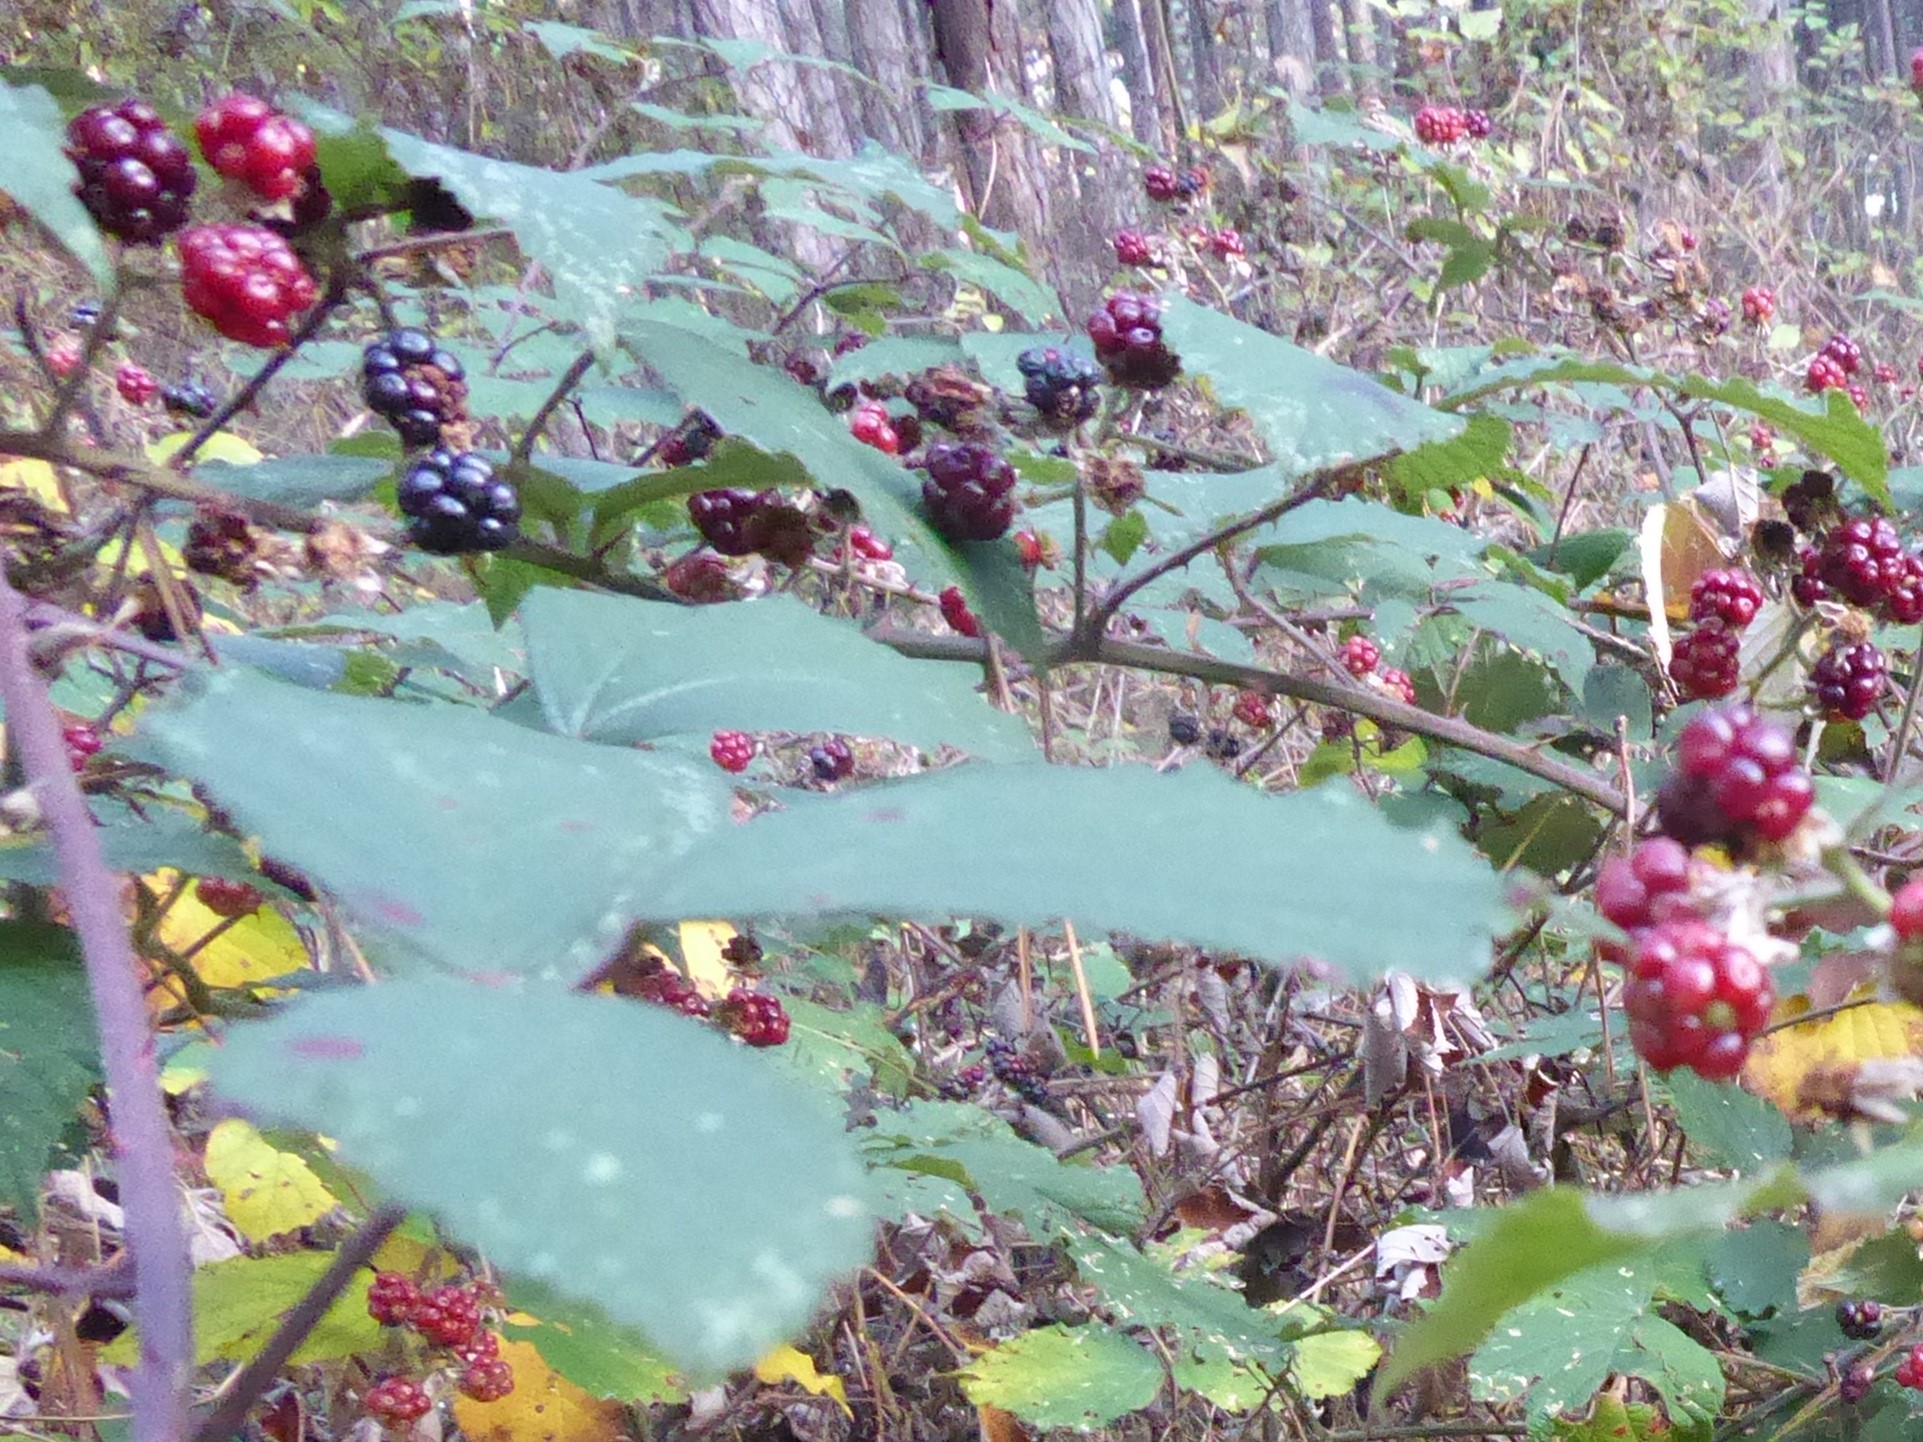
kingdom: Plantae
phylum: Tracheophyta
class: Magnoliopsida
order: Rosales
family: Rosaceae
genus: Rubus
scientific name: Rubus
